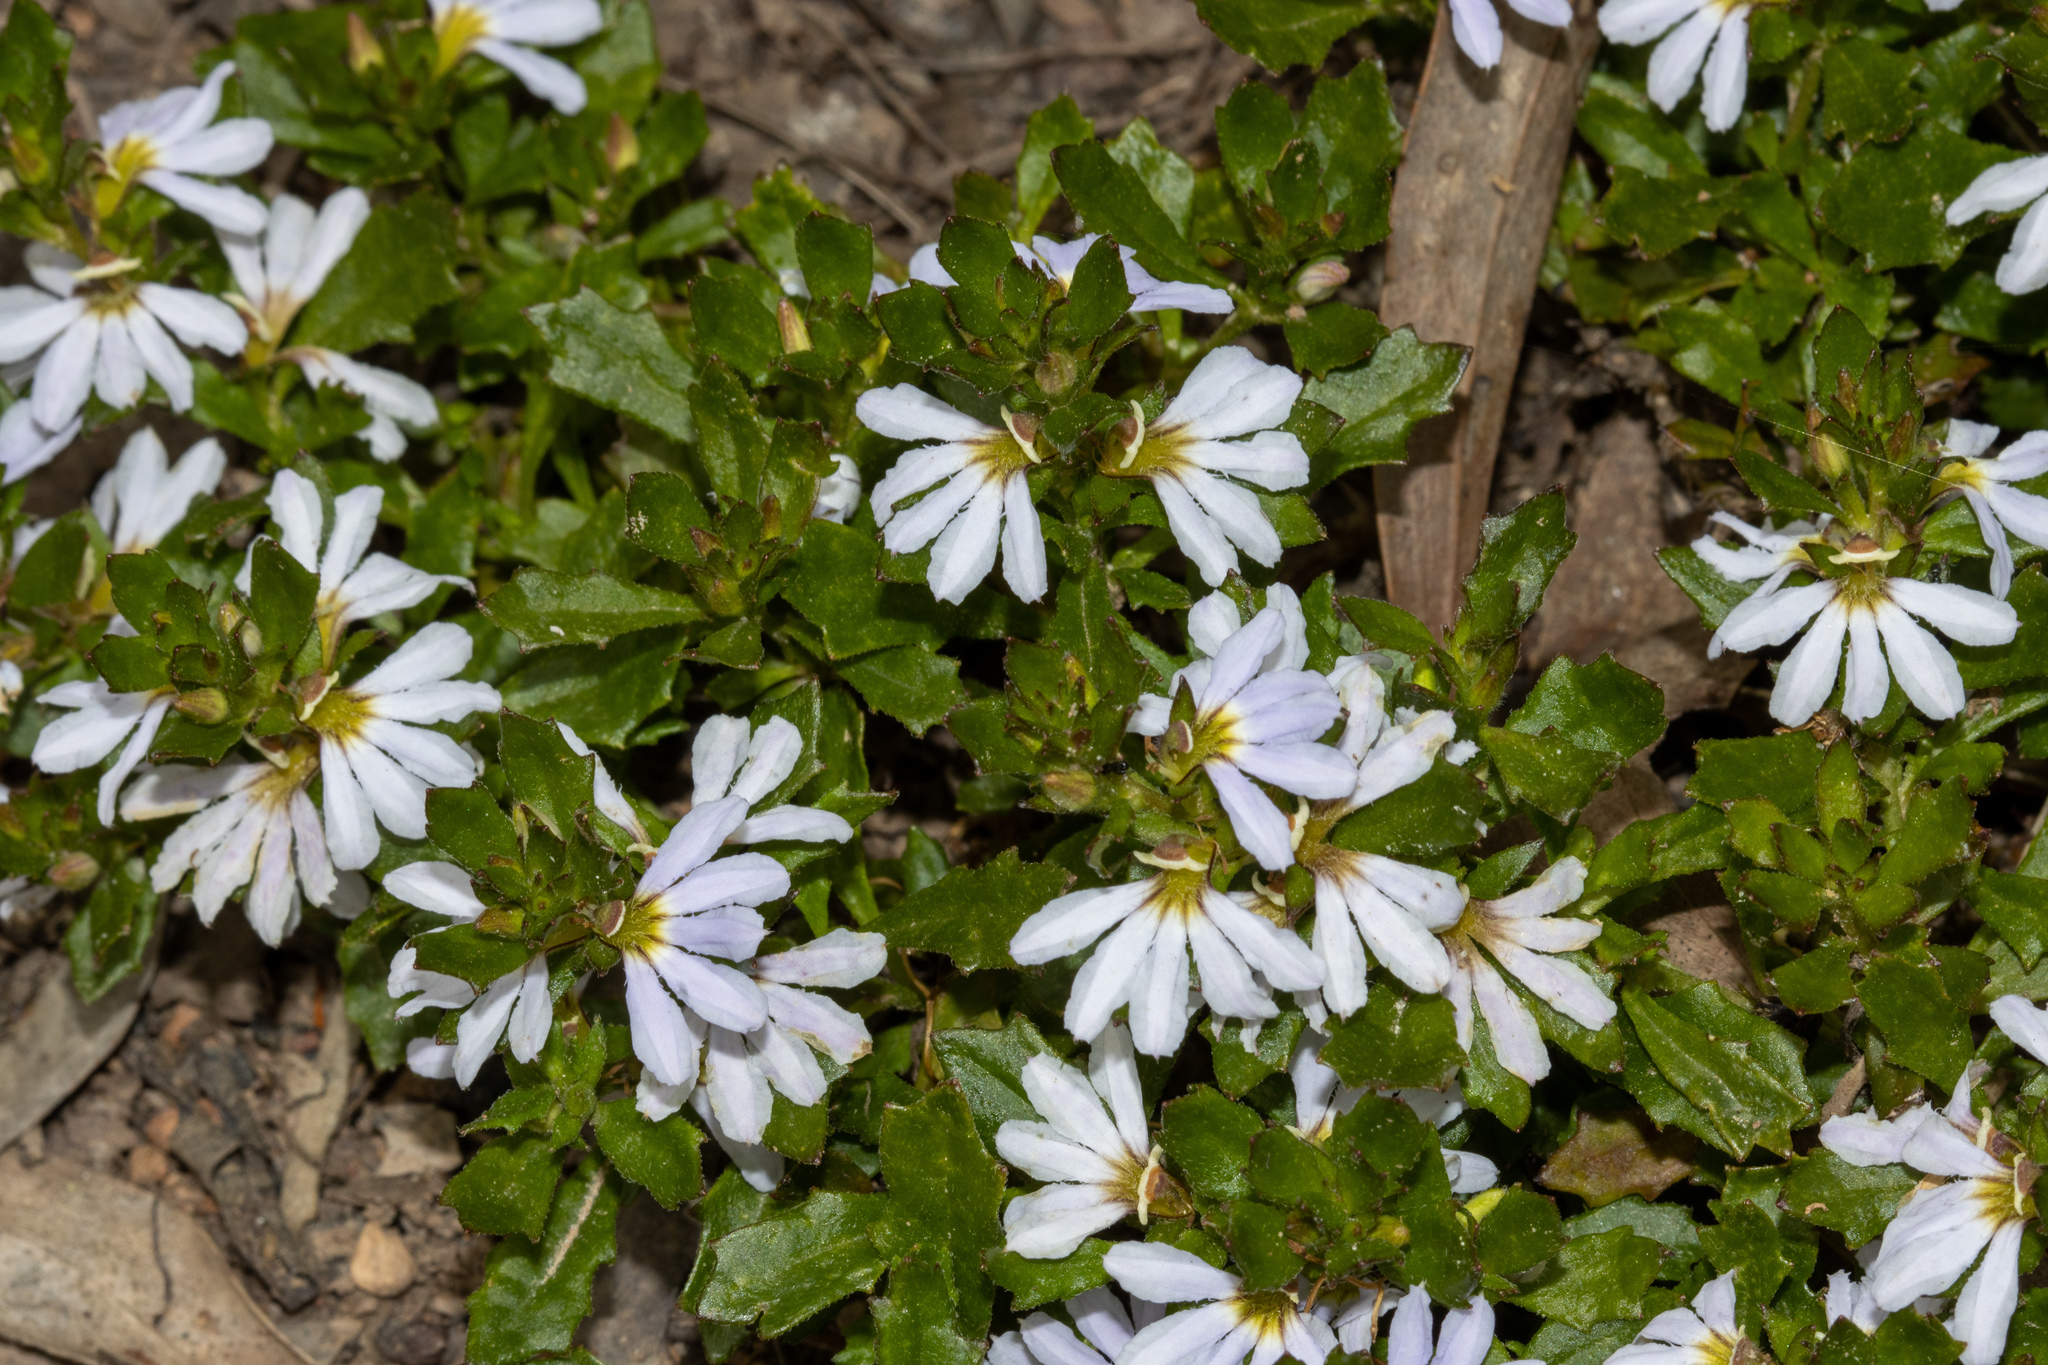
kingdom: Plantae
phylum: Tracheophyta
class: Magnoliopsida
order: Asterales
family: Goodeniaceae
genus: Scaevola
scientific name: Scaevola albida
